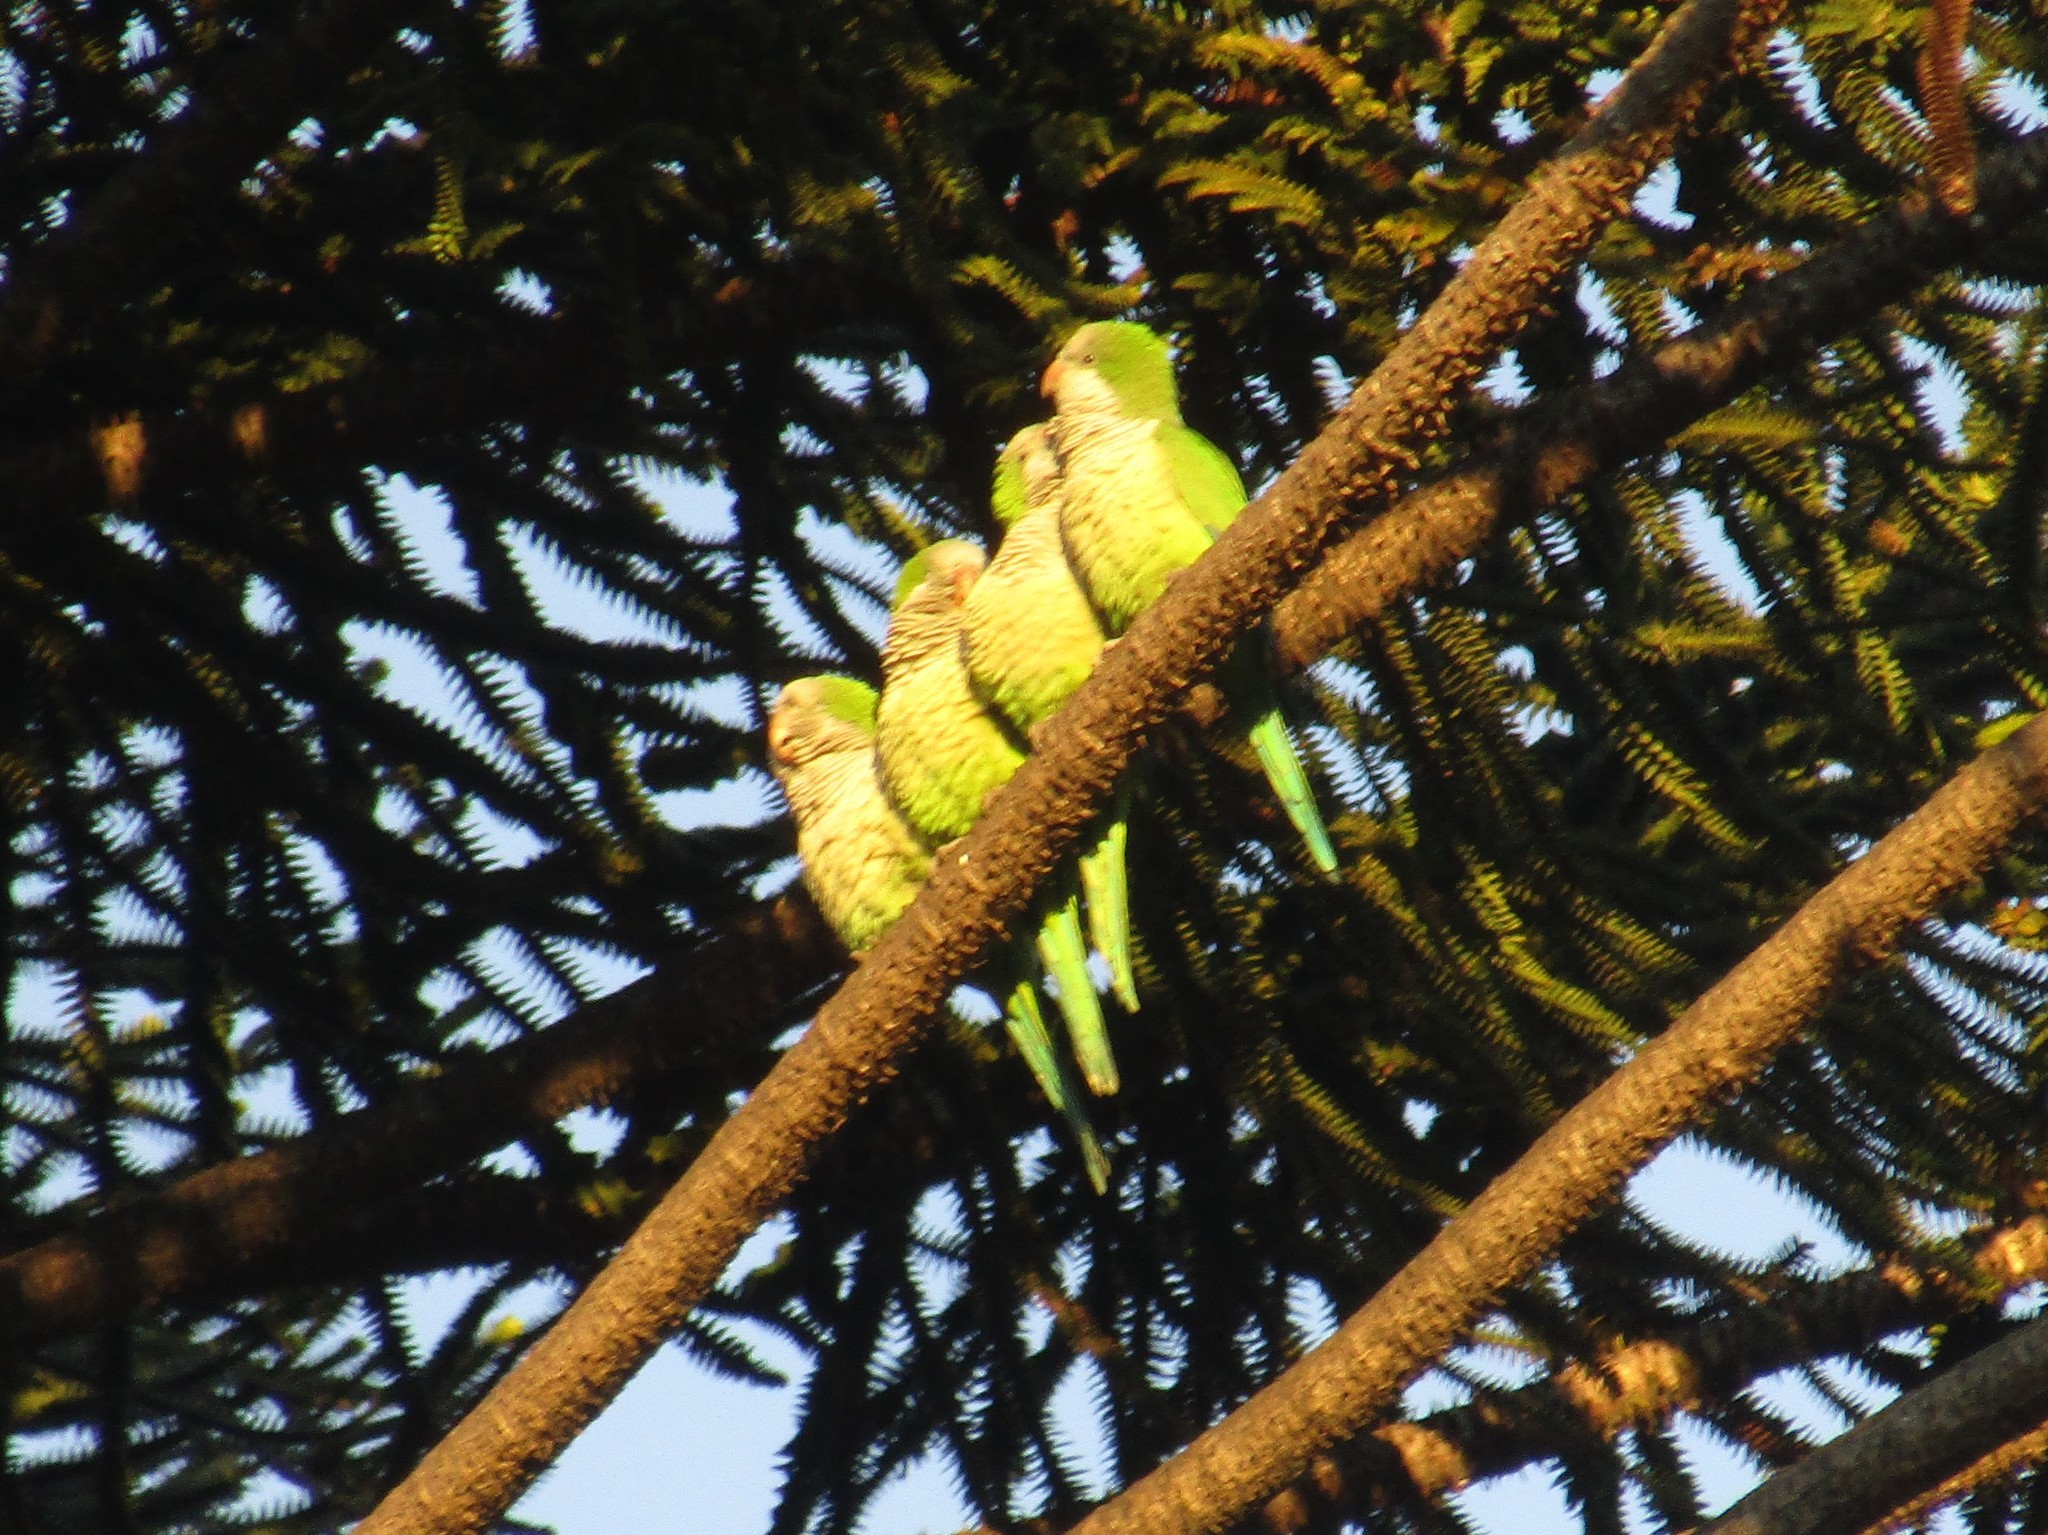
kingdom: Animalia
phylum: Chordata
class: Aves
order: Psittaciformes
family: Psittacidae
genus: Myiopsitta
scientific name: Myiopsitta monachus
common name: Monk parakeet
